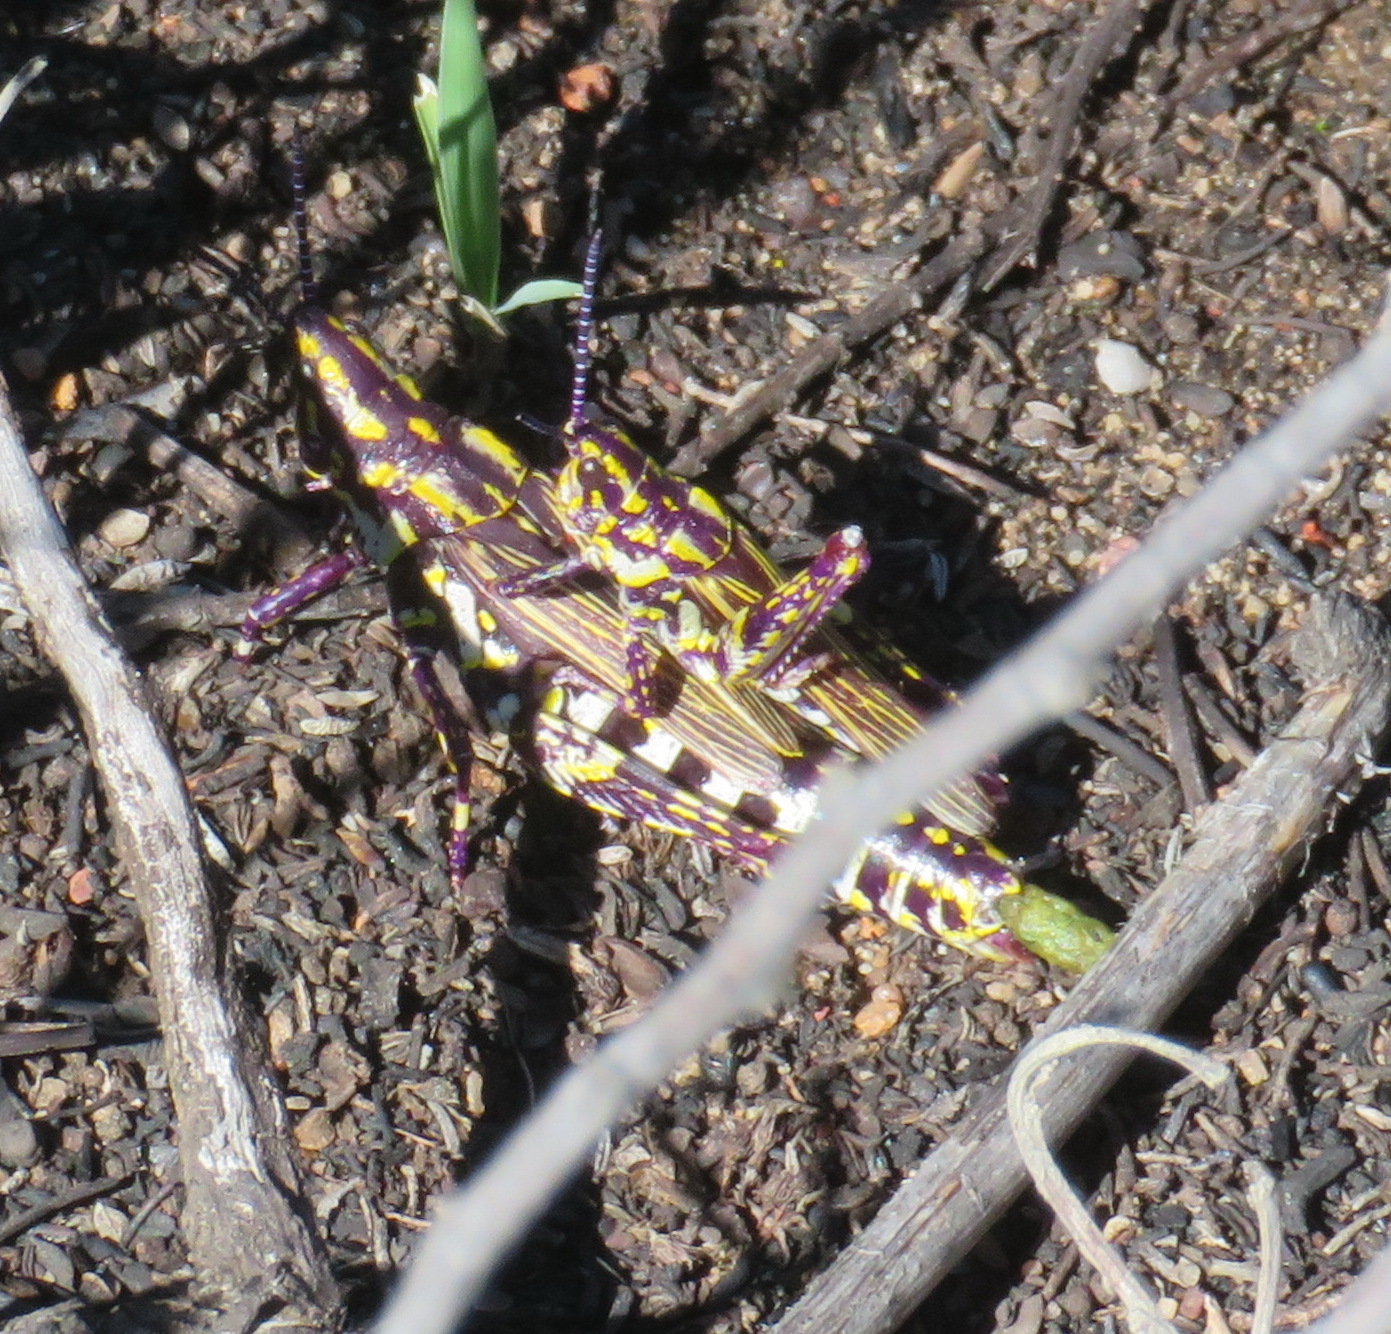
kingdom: Animalia
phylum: Arthropoda
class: Insecta
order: Orthoptera
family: Pyrgomorphidae
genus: Ochrophlebia
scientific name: Ochrophlebia cafra
